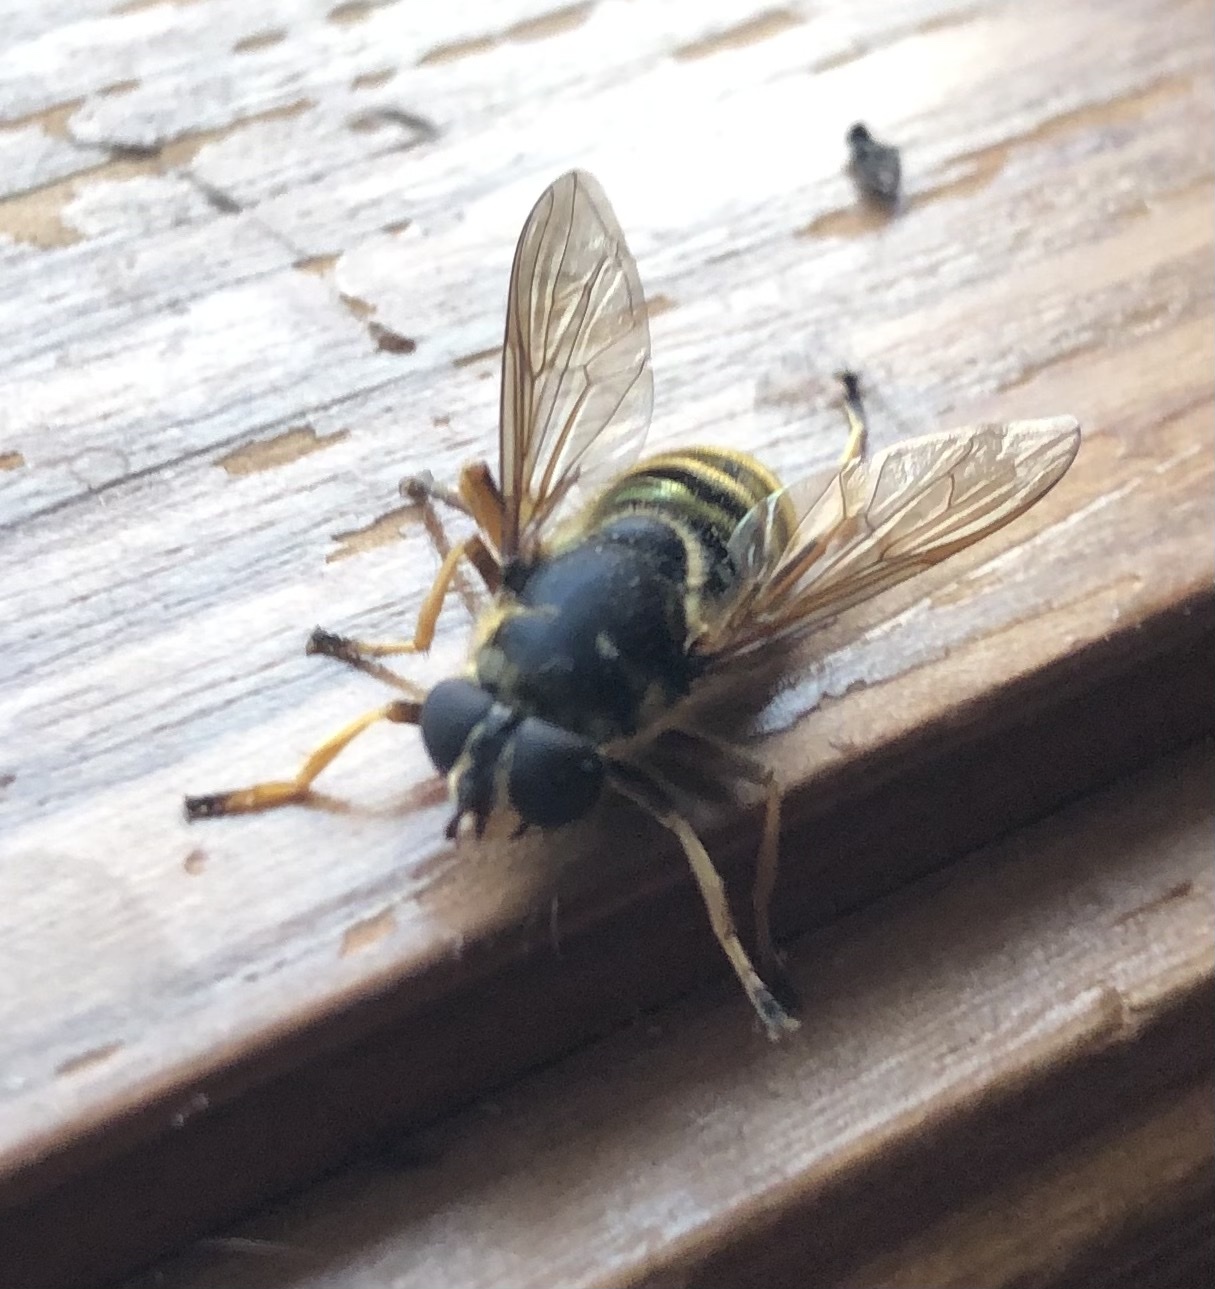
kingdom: Animalia
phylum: Arthropoda
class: Insecta
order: Diptera
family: Syrphidae
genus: Hadromyia
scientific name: Hadromyia pulchra
